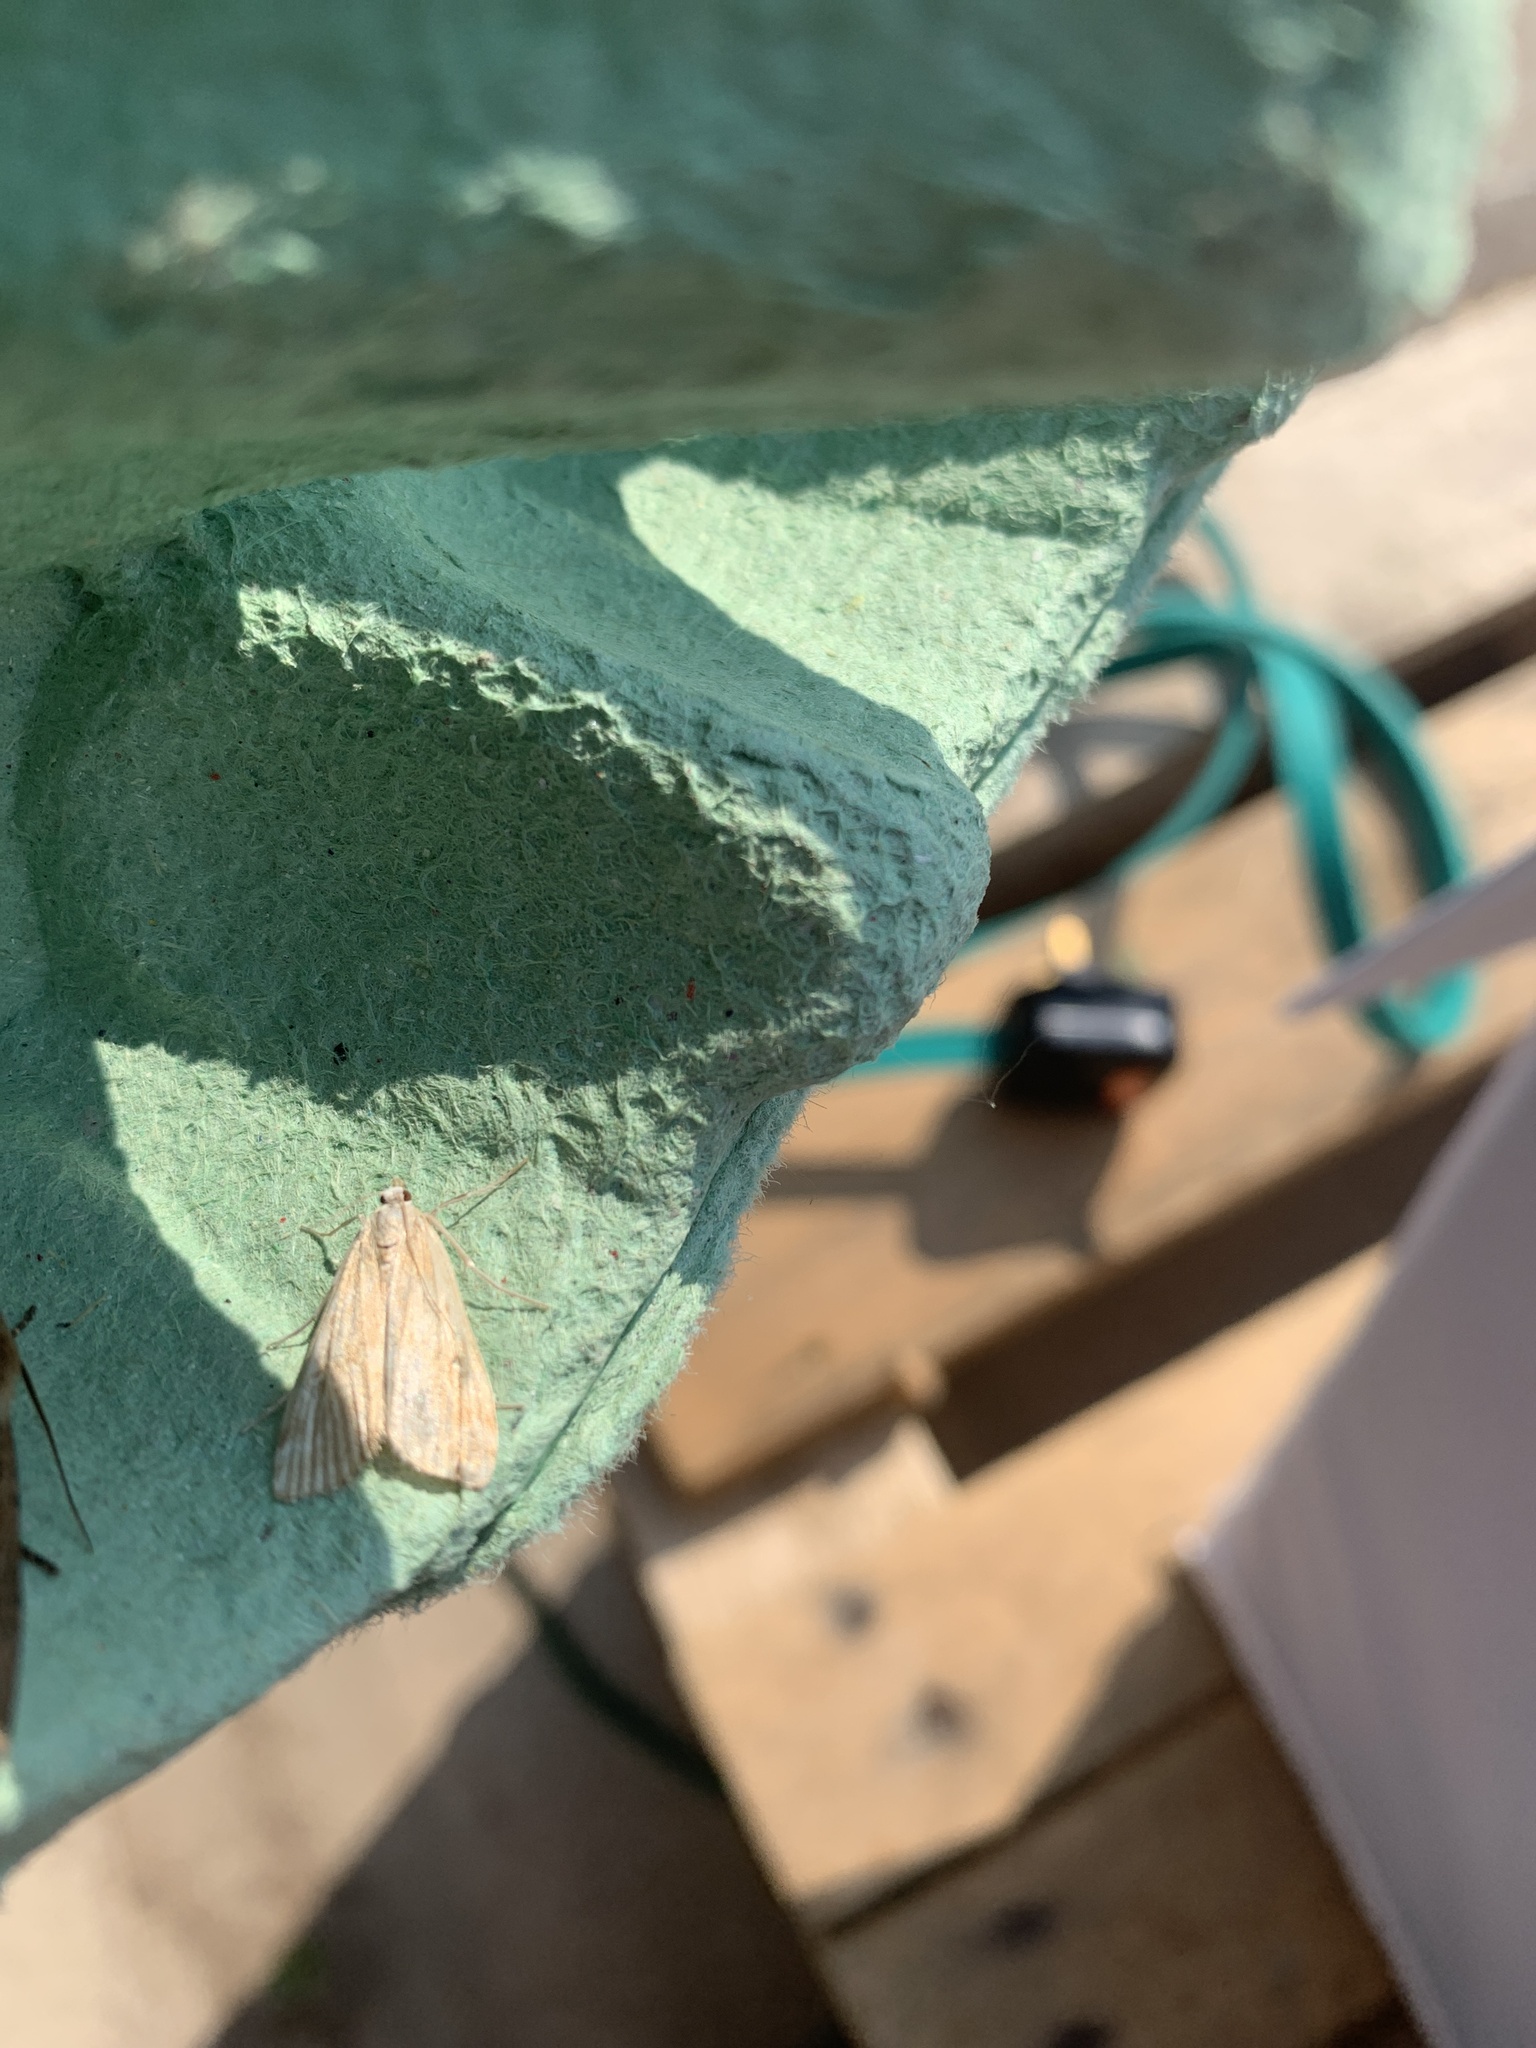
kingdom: Animalia
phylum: Arthropoda
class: Insecta
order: Lepidoptera
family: Crambidae
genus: Glaphyria
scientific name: Glaphyria invisalis
